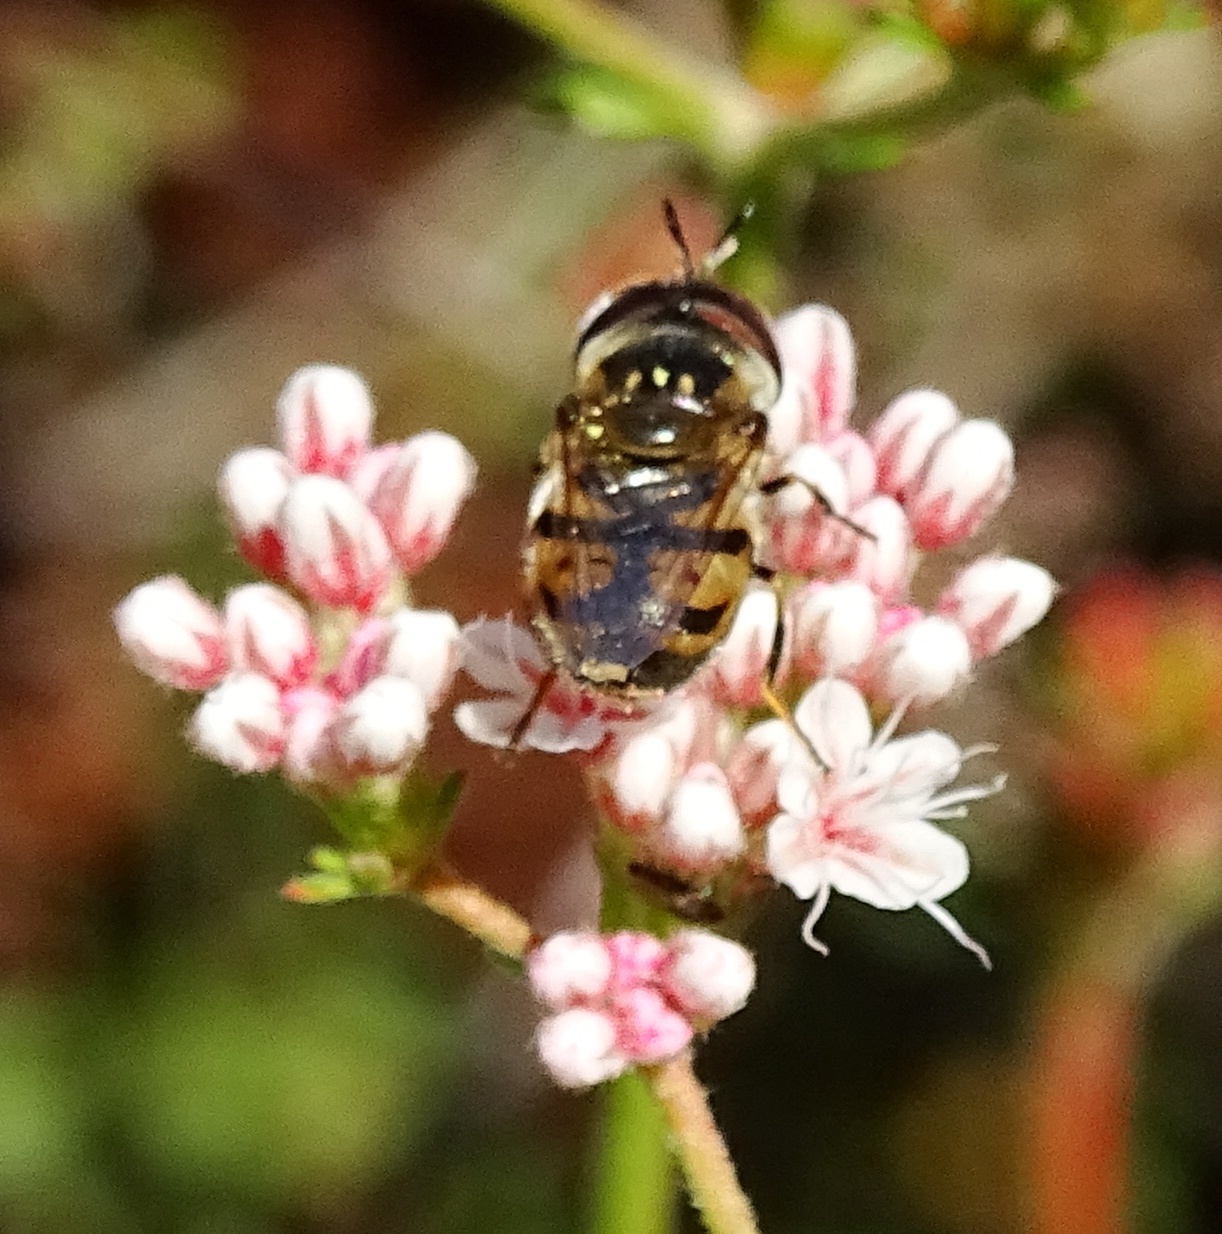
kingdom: Animalia
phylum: Arthropoda
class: Insecta
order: Diptera
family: Syrphidae
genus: Copestylum
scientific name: Copestylum marginatum
